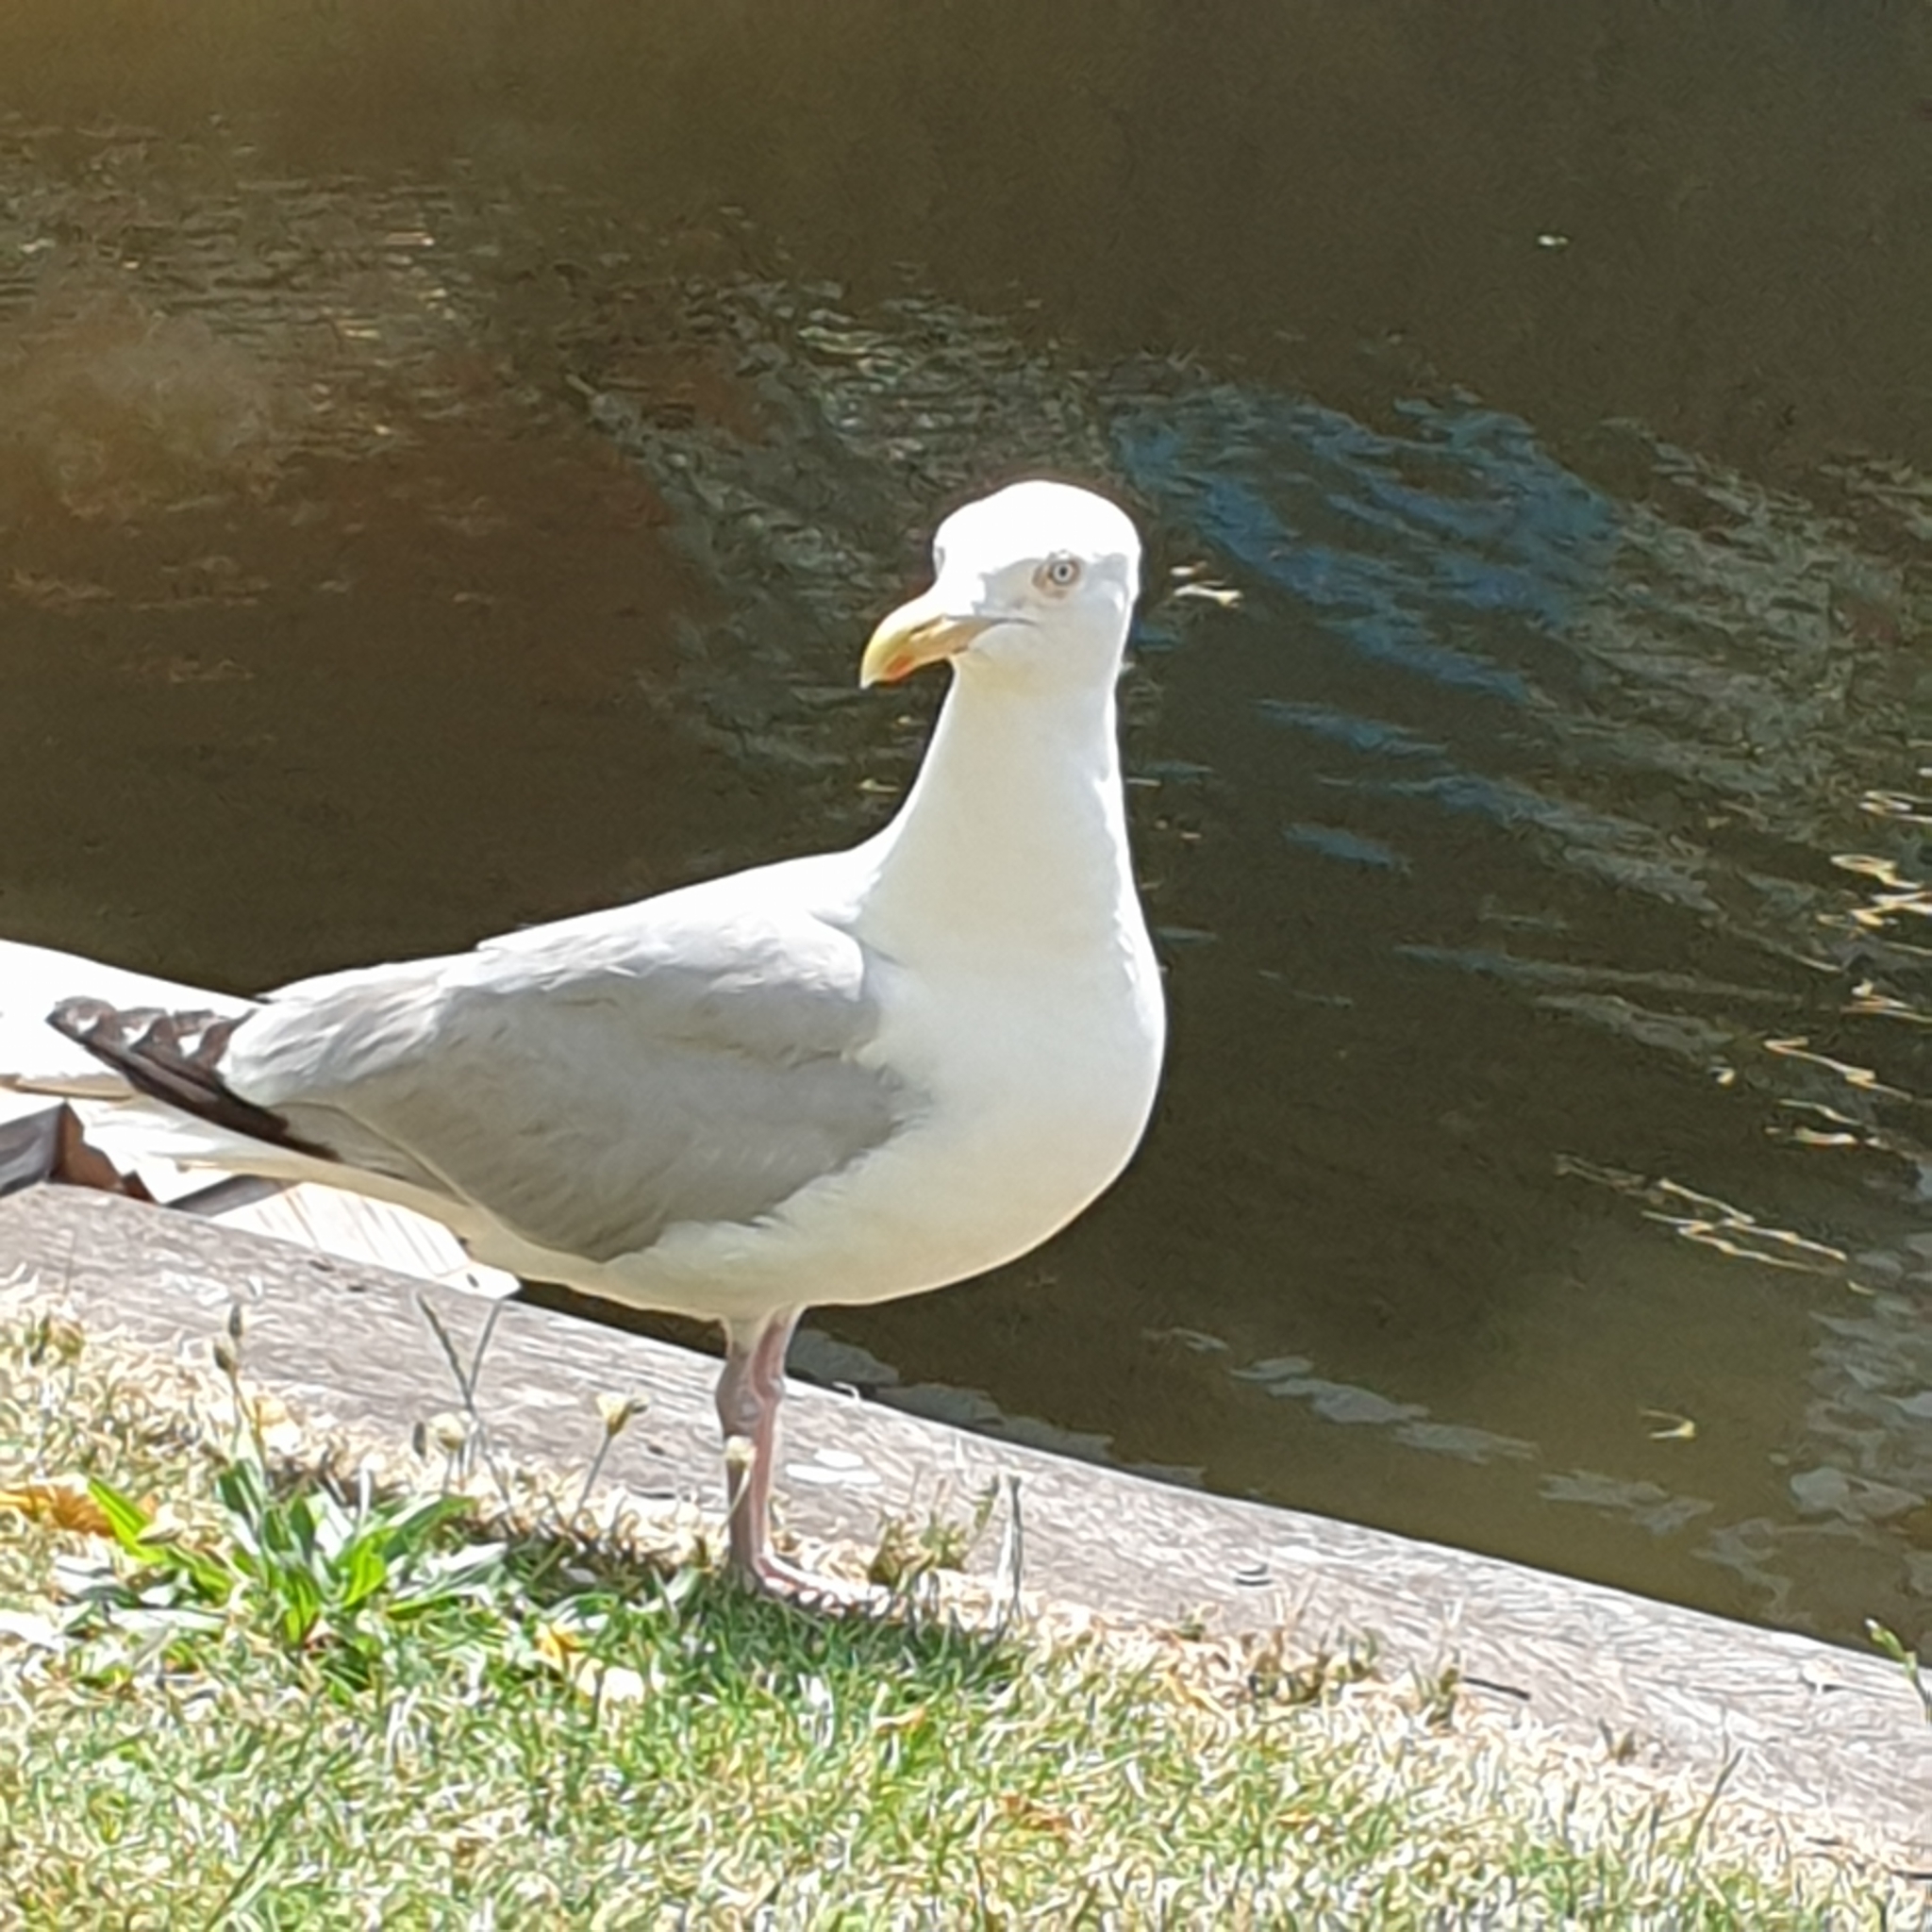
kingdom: Animalia
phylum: Chordata
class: Aves
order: Charadriiformes
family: Laridae
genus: Larus
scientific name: Larus argentatus
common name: Herring gull
